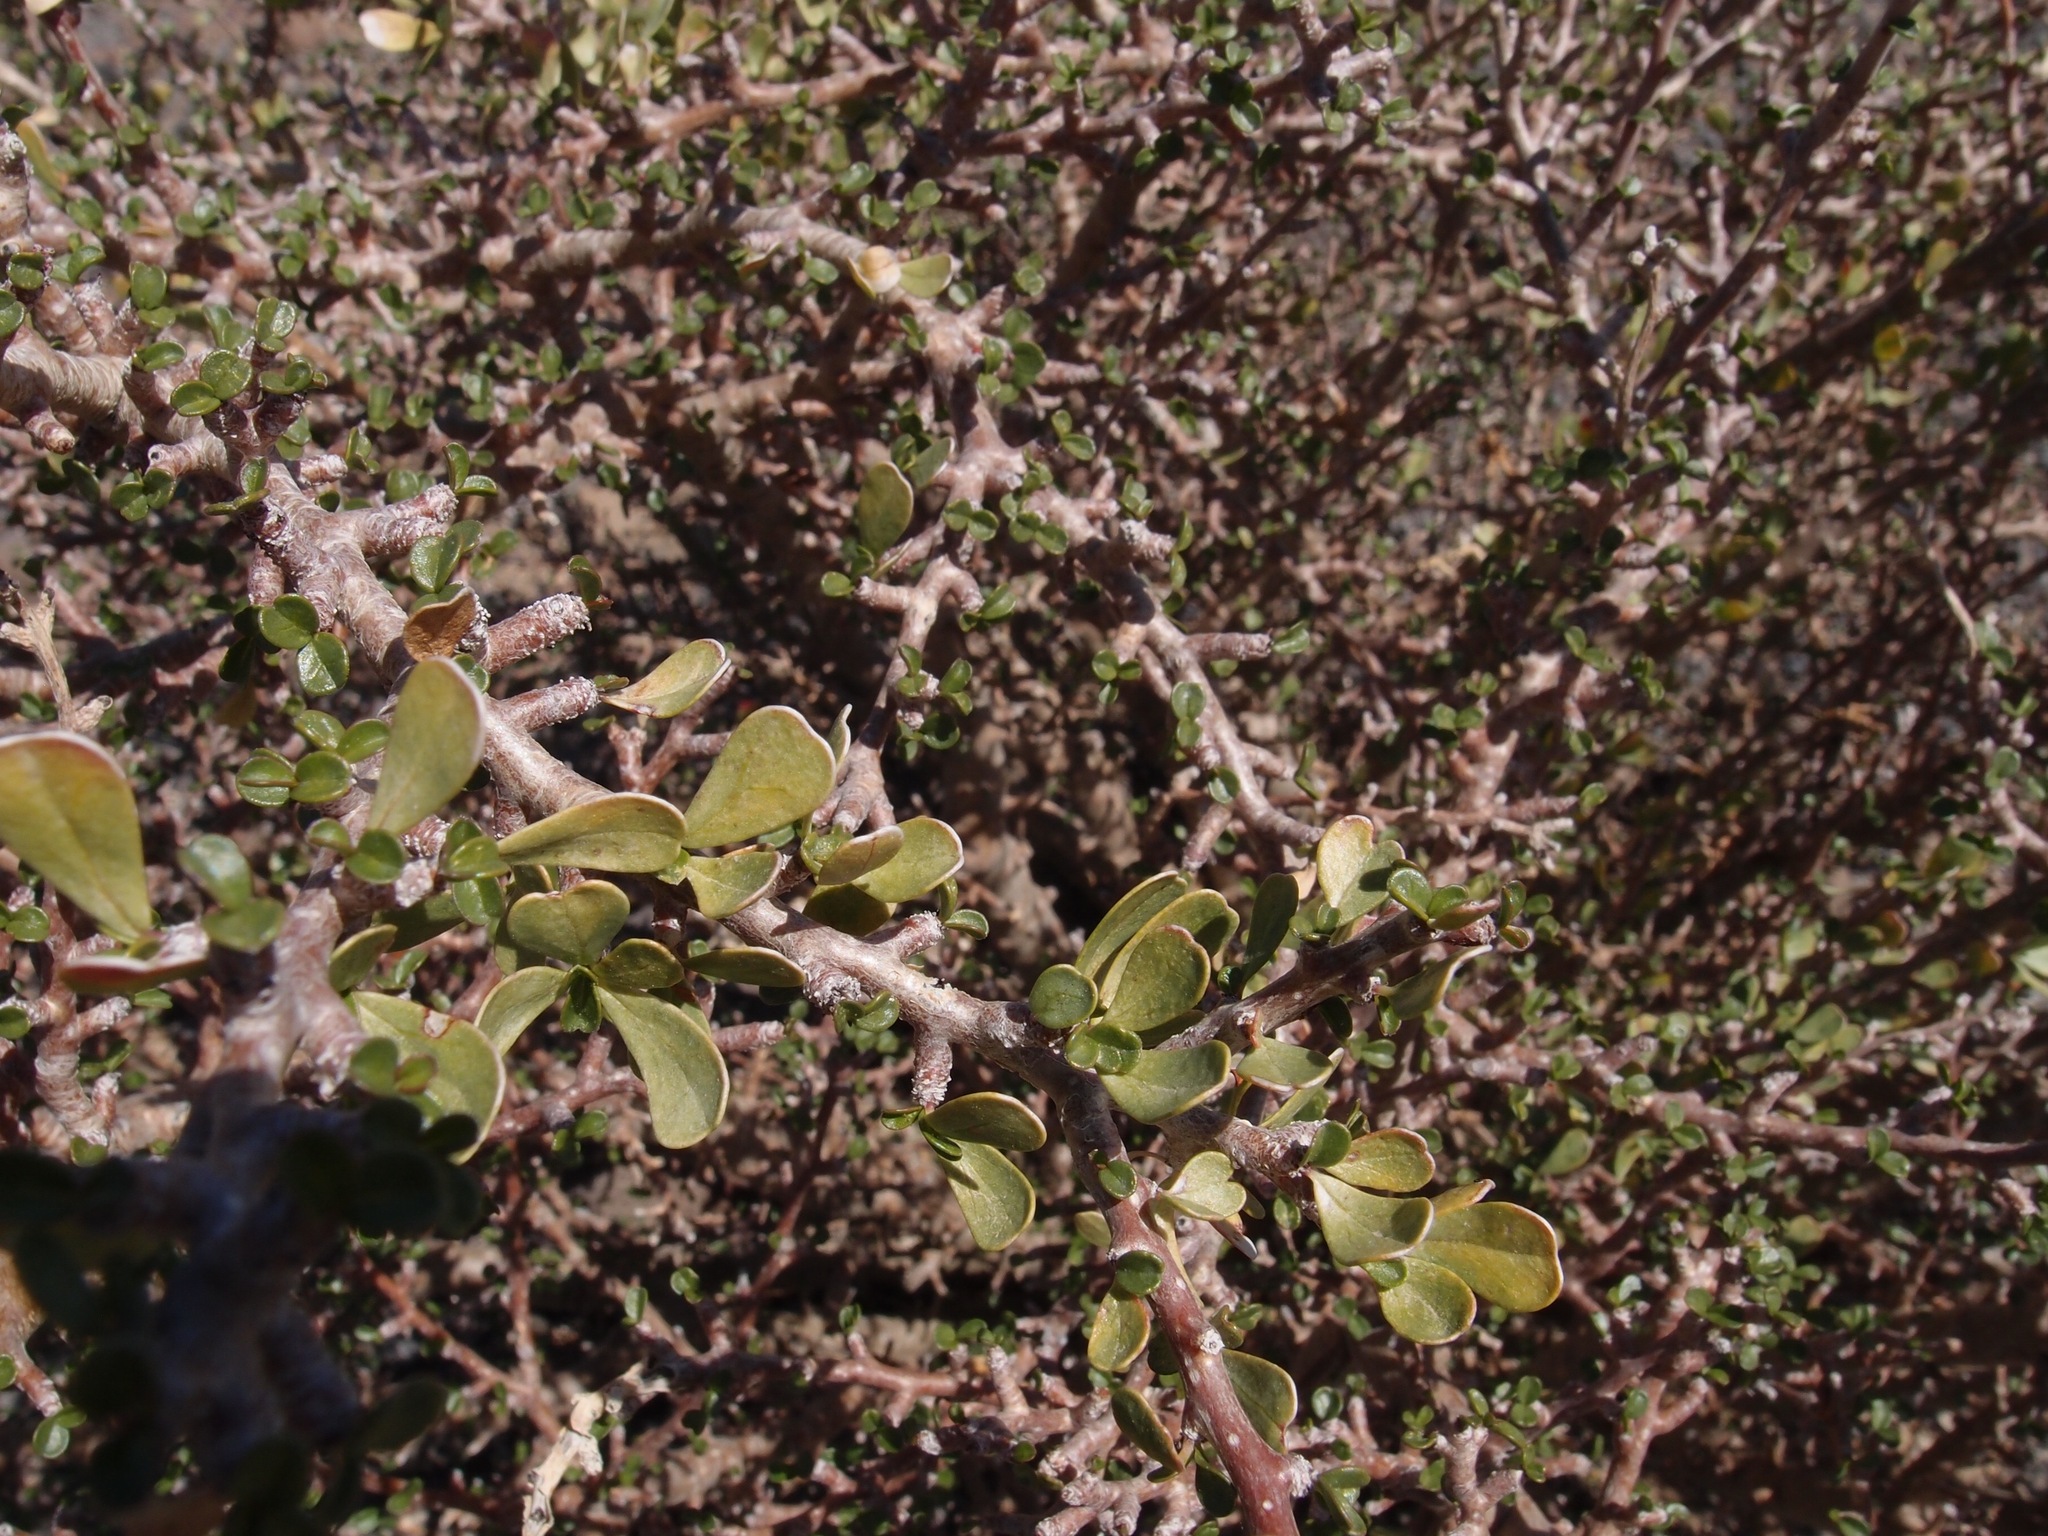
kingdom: Plantae
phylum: Tracheophyta
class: Magnoliopsida
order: Malpighiales
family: Euphorbiaceae
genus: Jatropha
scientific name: Jatropha cuneata
